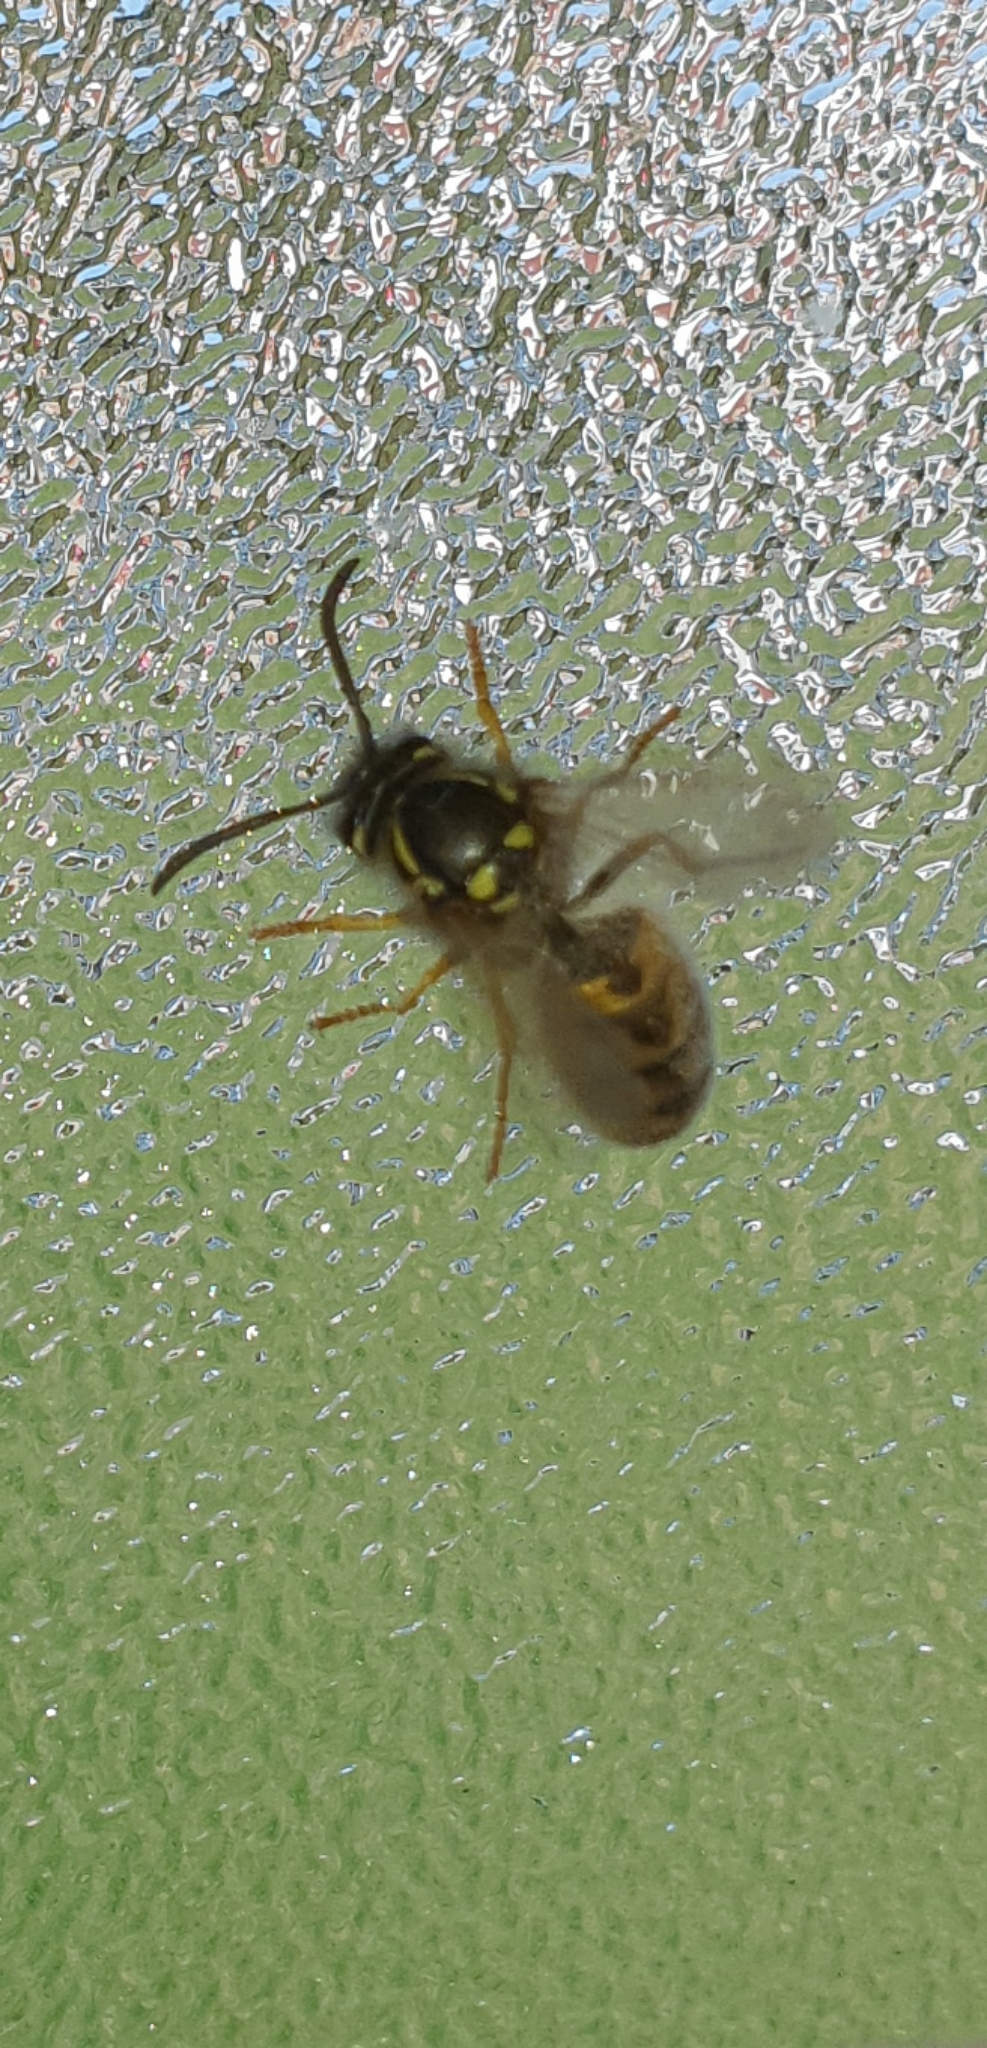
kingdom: Animalia
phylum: Arthropoda
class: Insecta
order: Hymenoptera
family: Vespidae
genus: Vespula
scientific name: Vespula vulgaris
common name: Common wasp
